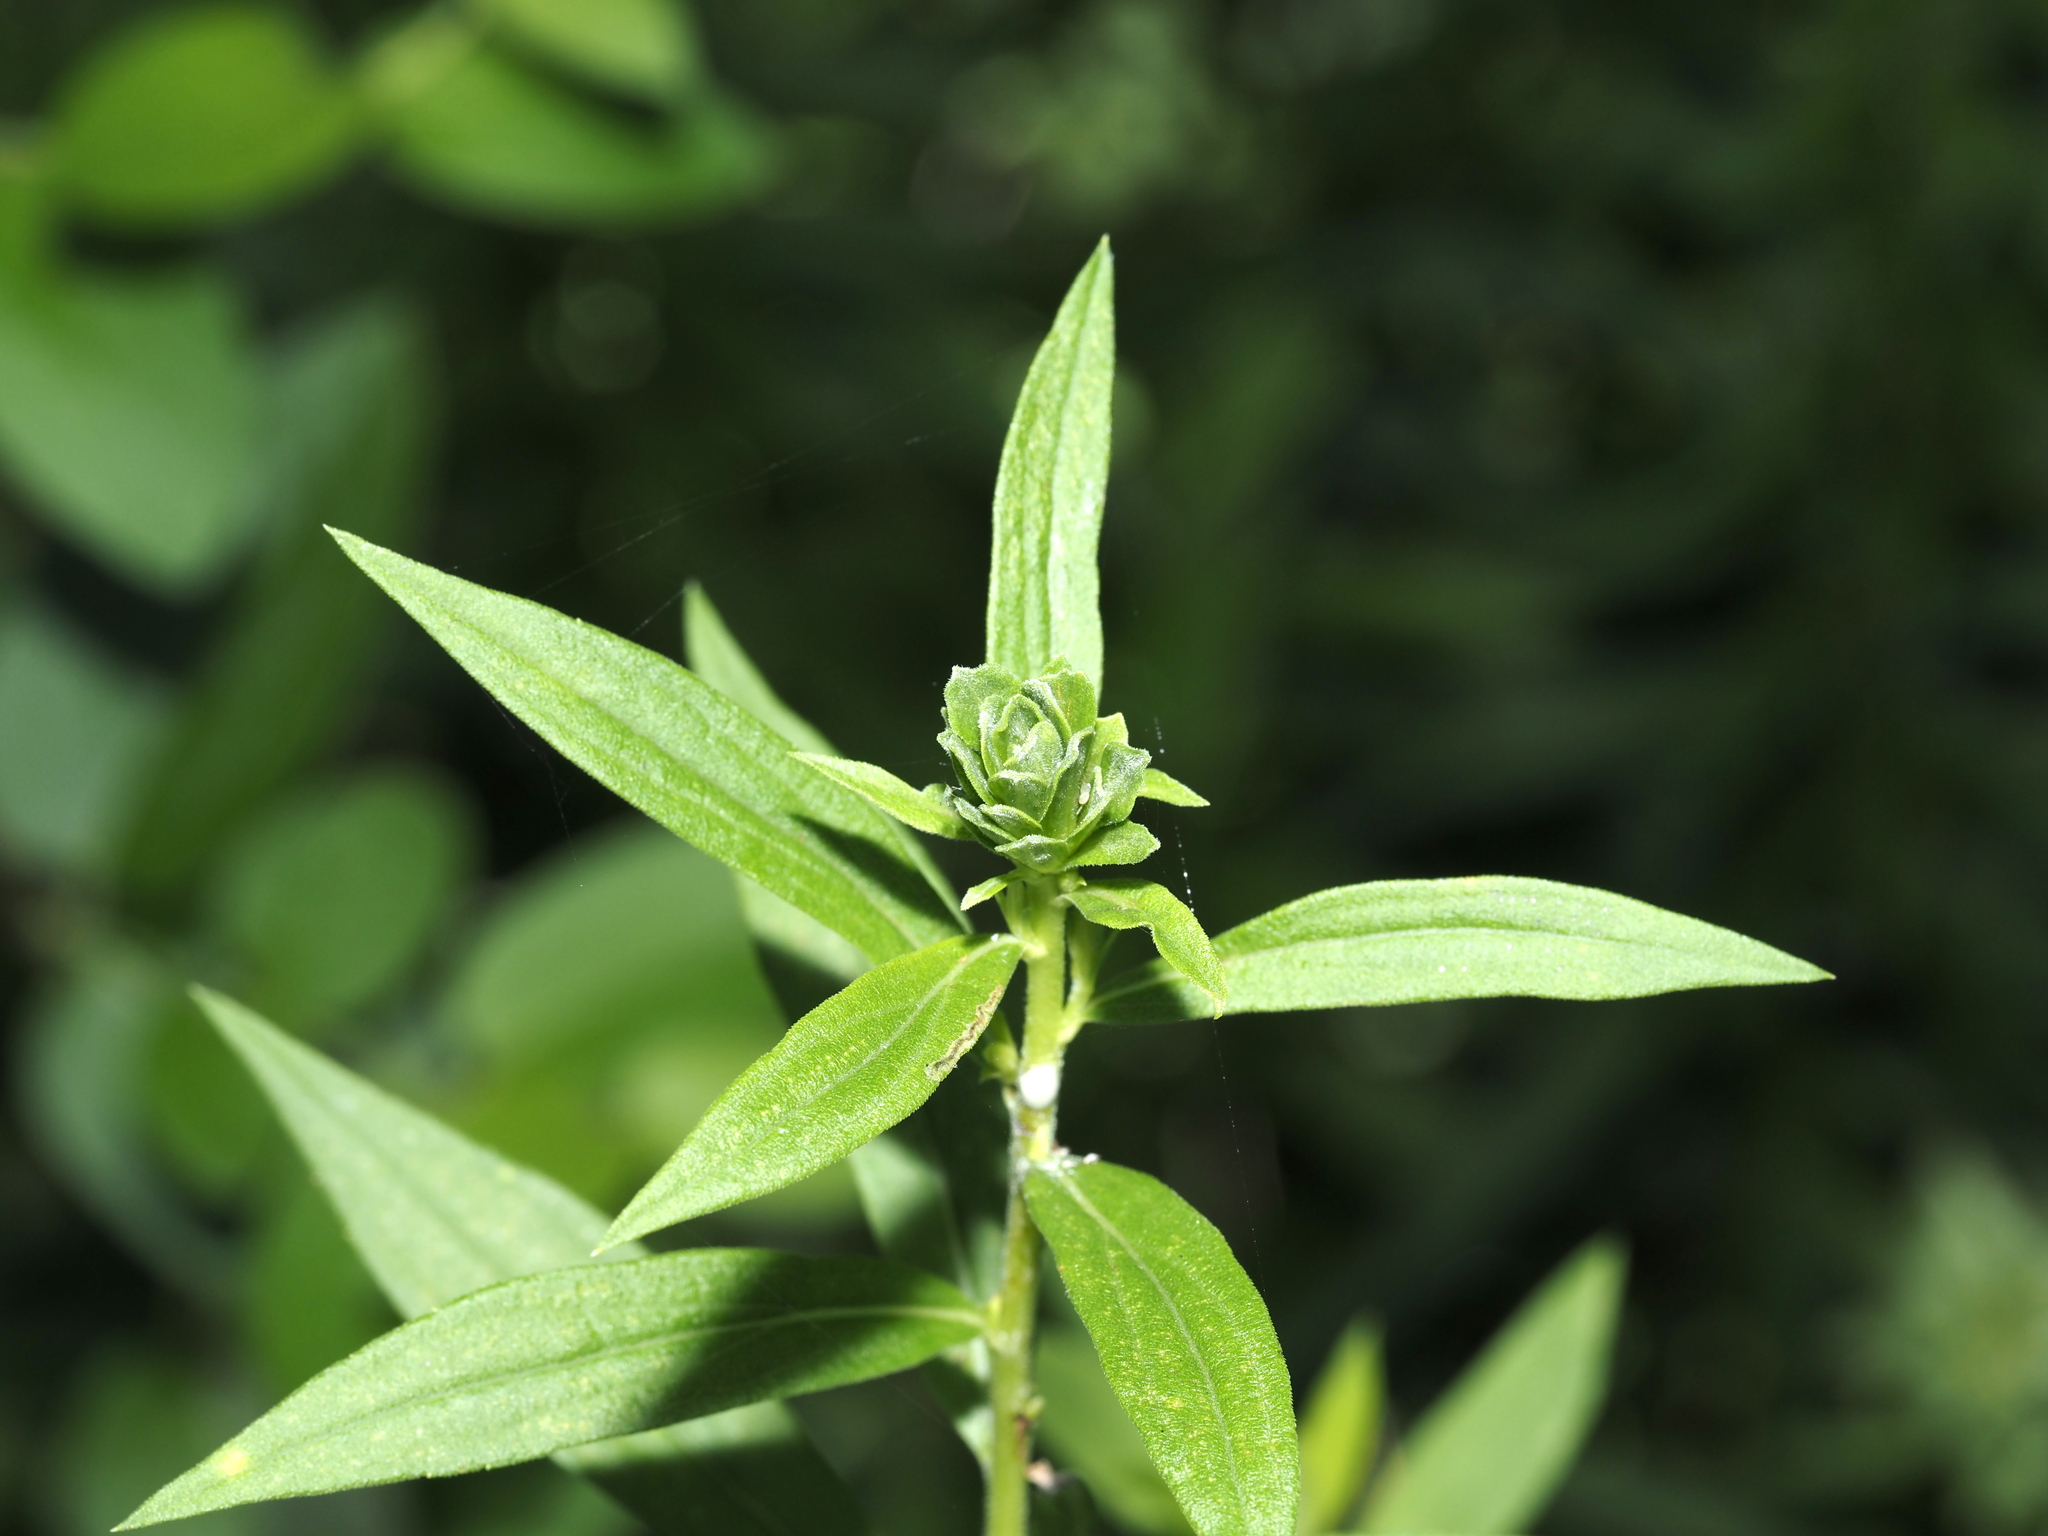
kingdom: Animalia
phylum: Arthropoda
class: Insecta
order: Diptera
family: Cecidomyiidae
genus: Asphondylia
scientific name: Asphondylia solidaginis
